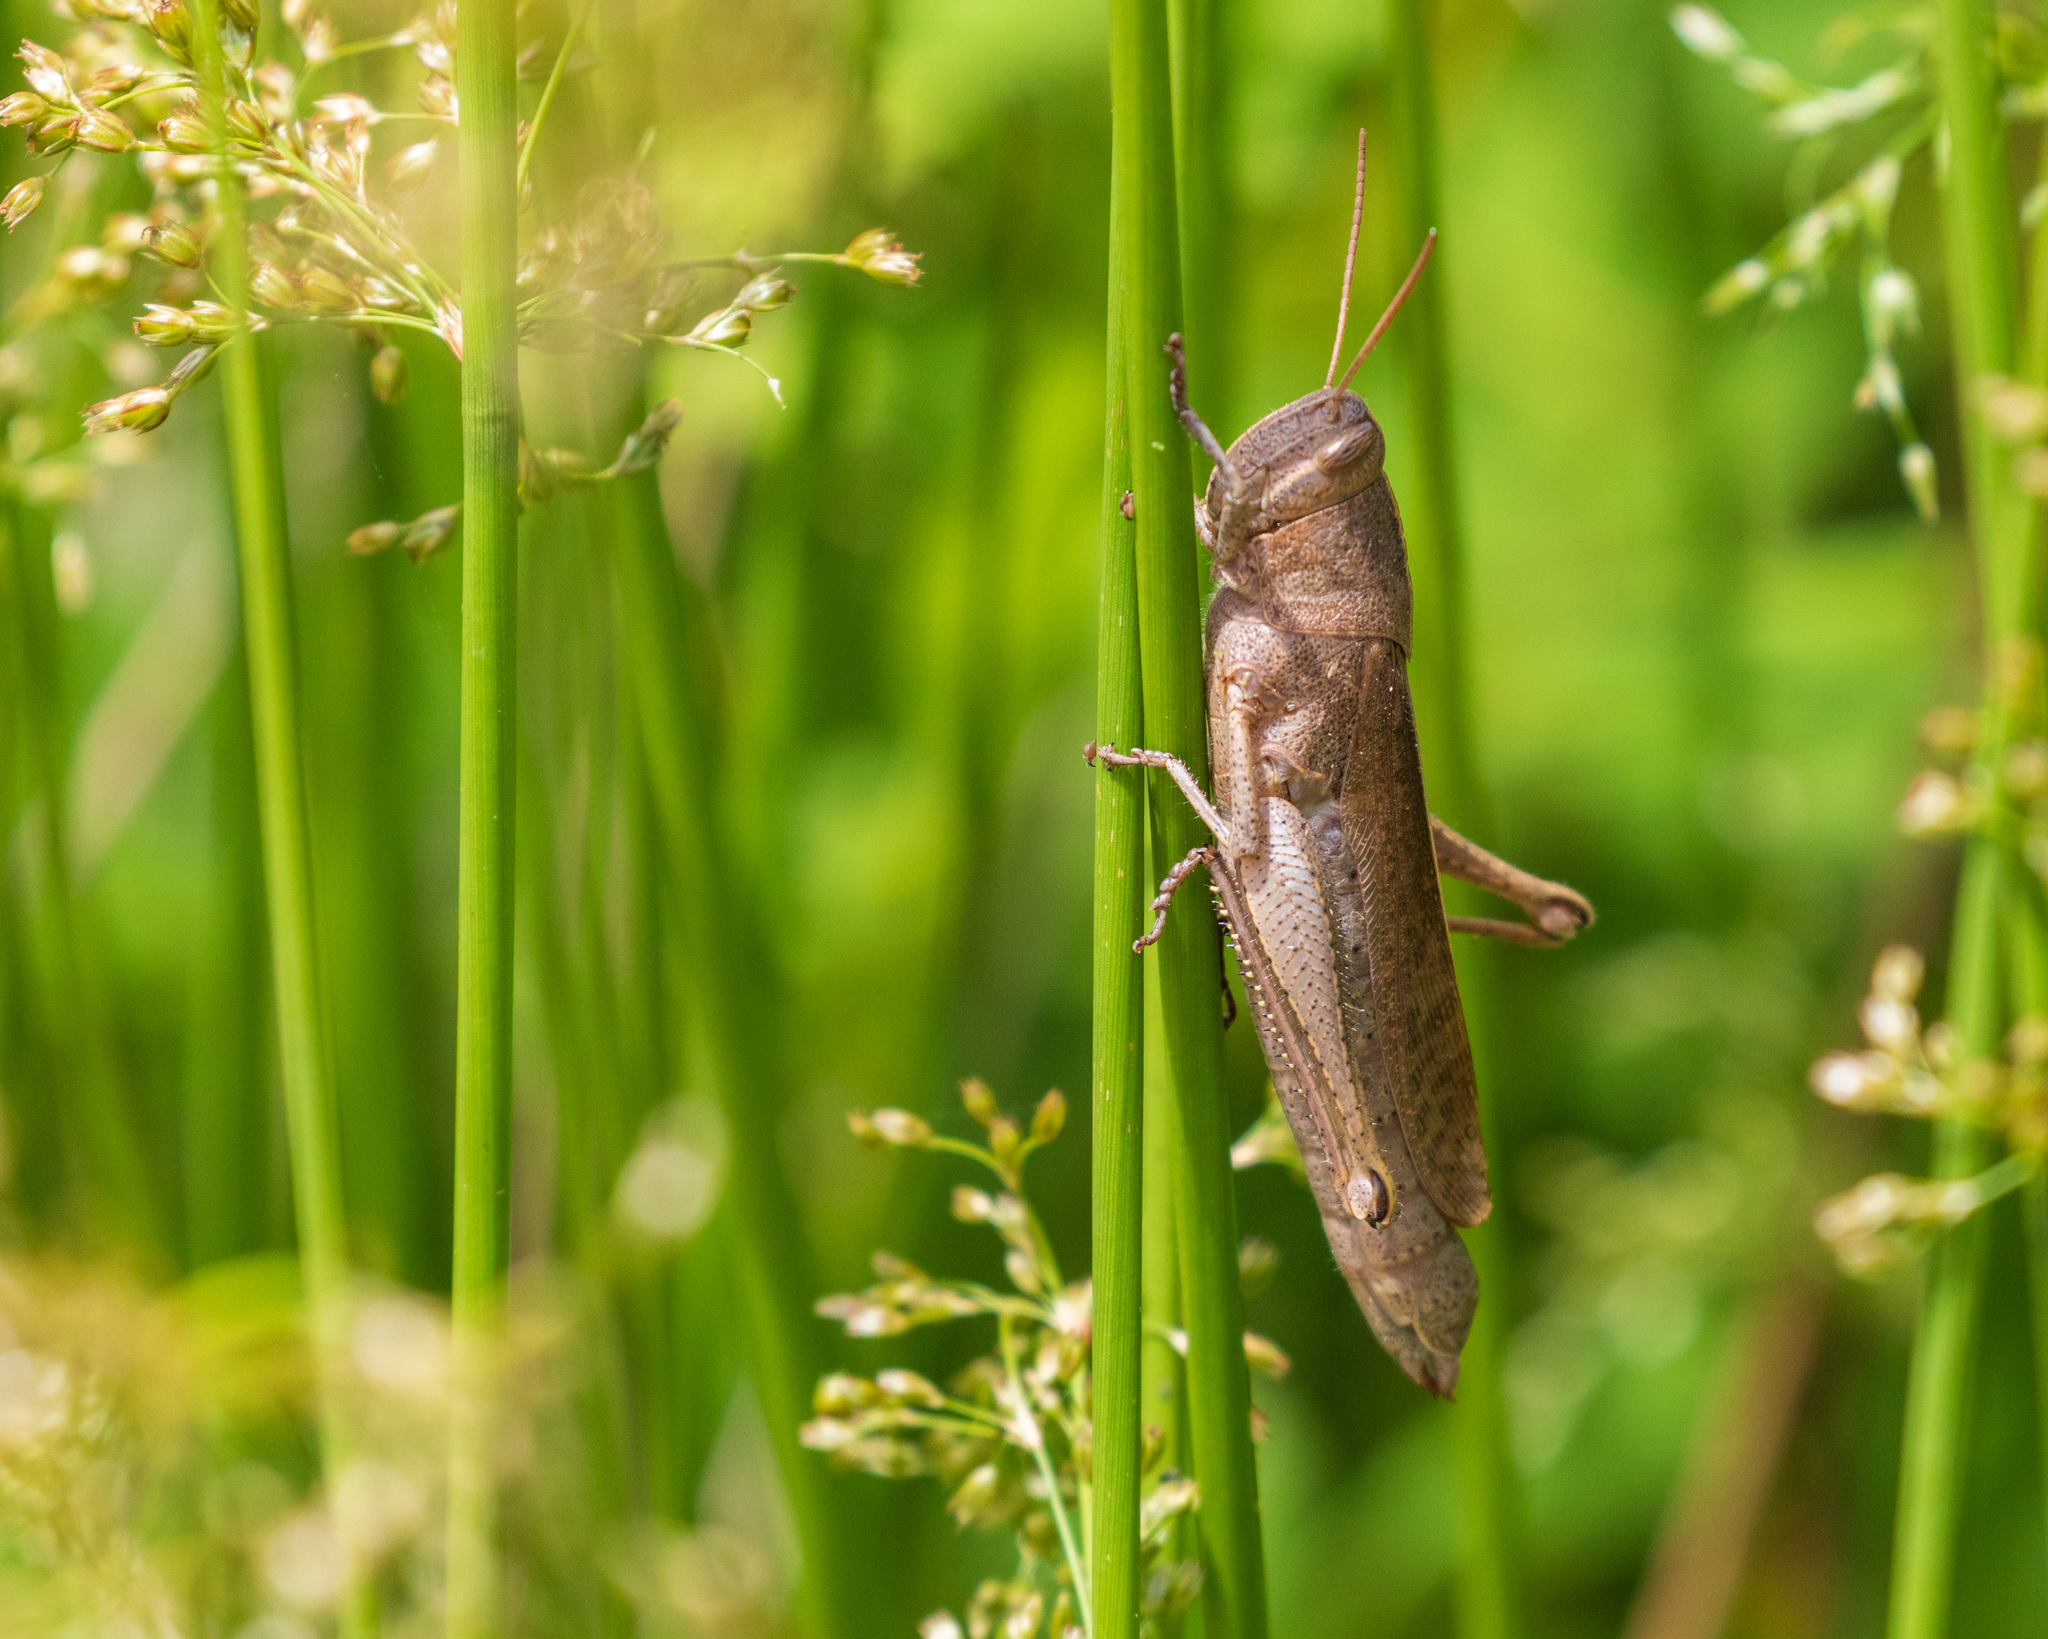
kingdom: Animalia
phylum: Arthropoda
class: Insecta
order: Orthoptera
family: Acrididae
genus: Schistocerca
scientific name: Schistocerca damnifica
